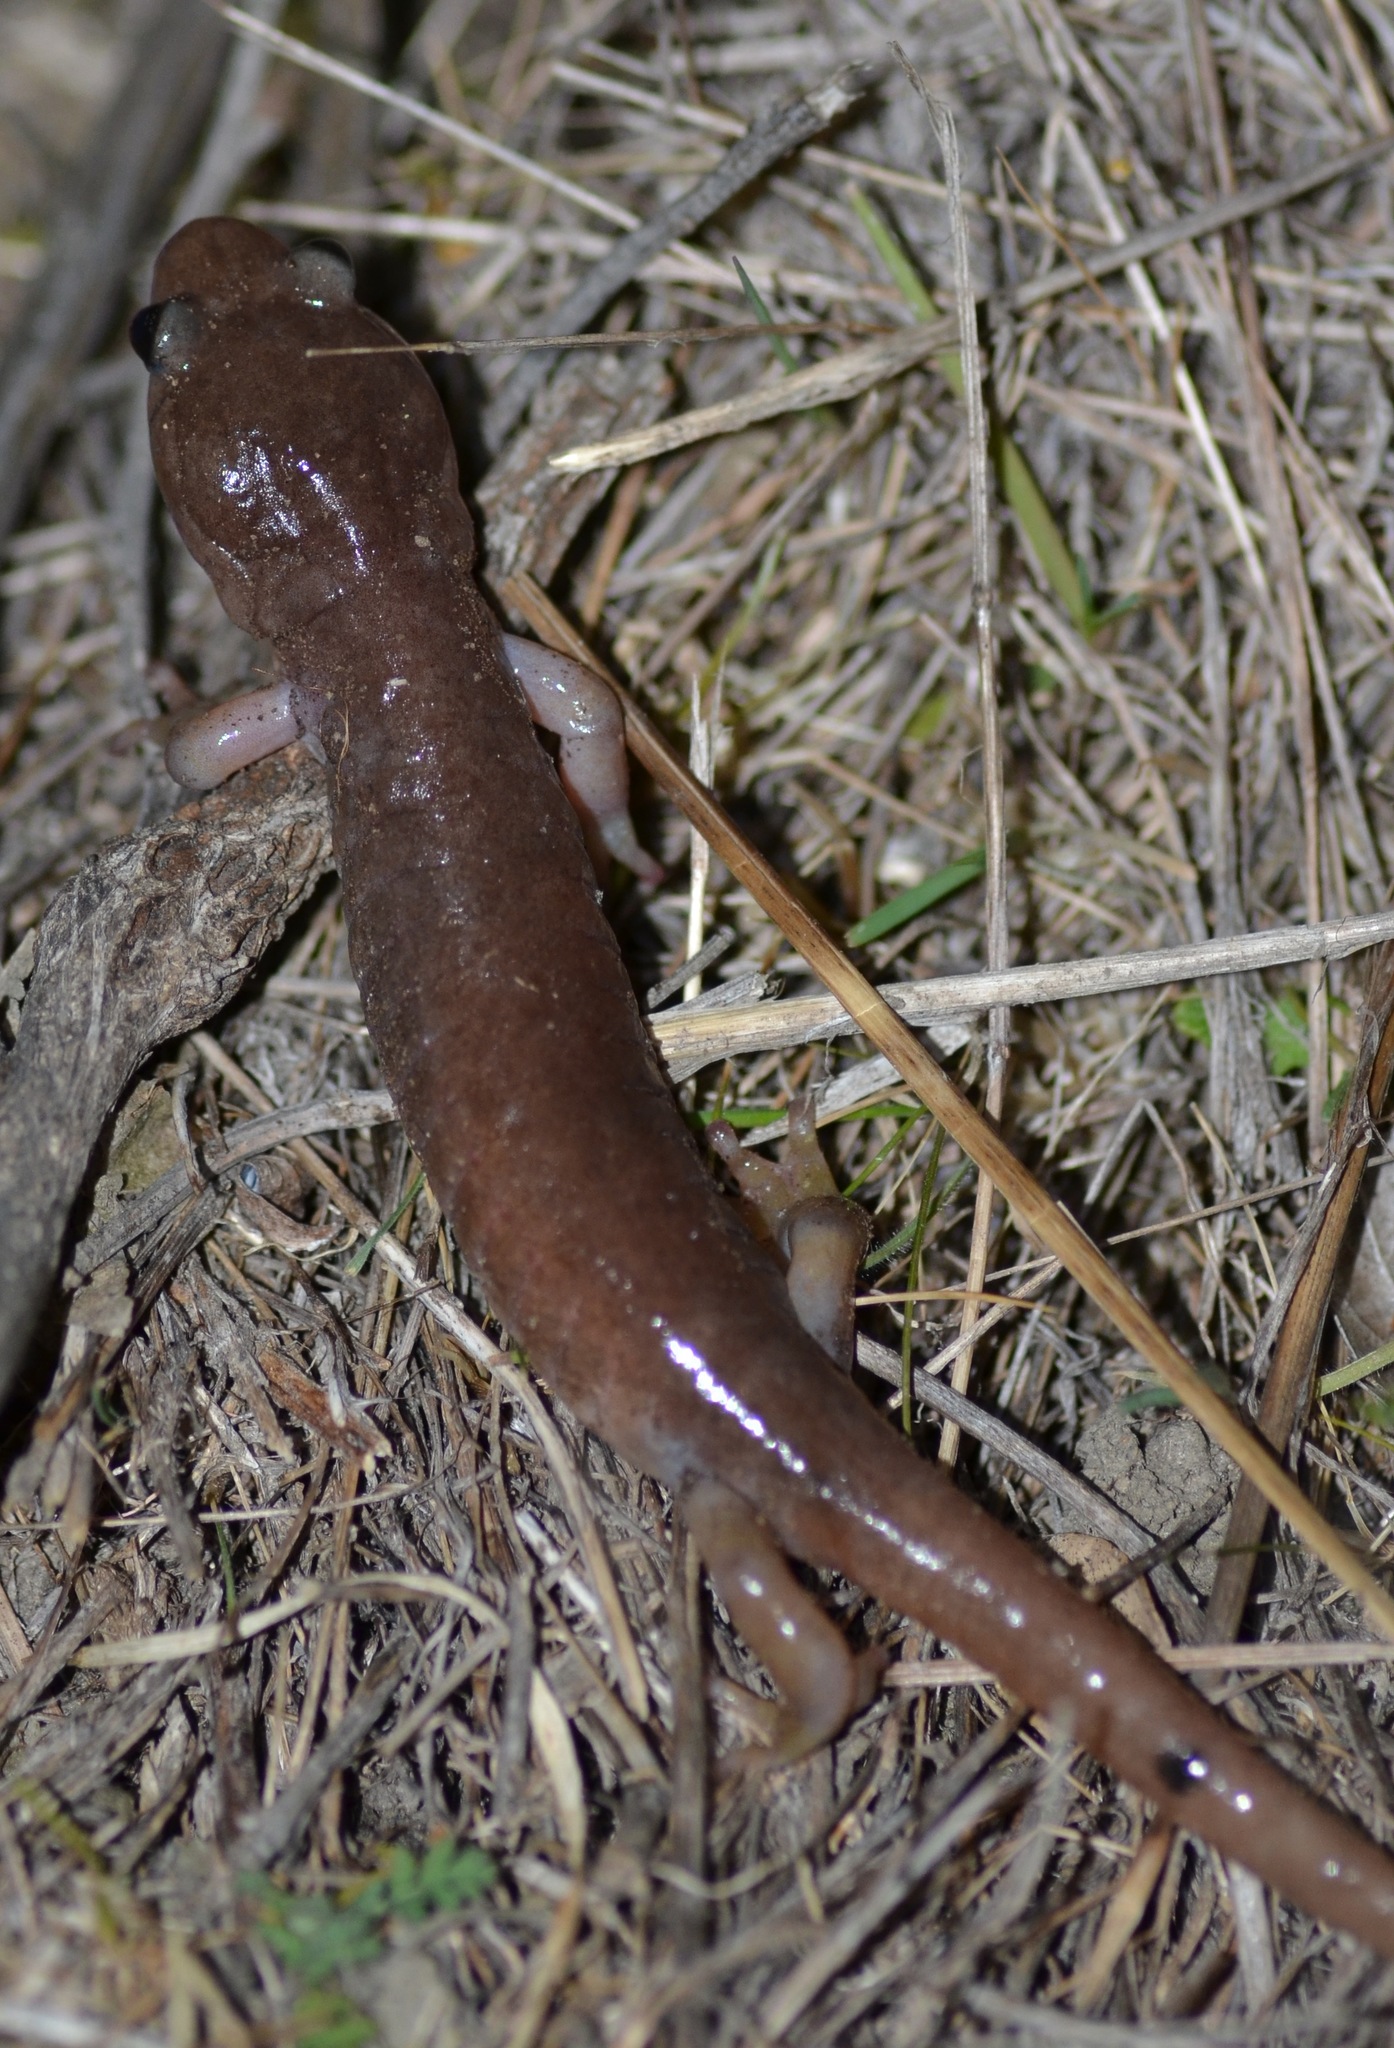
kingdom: Animalia
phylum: Chordata
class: Amphibia
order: Caudata
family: Plethodontidae
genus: Aneides
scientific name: Aneides lugubris
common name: Arboreal salamander
